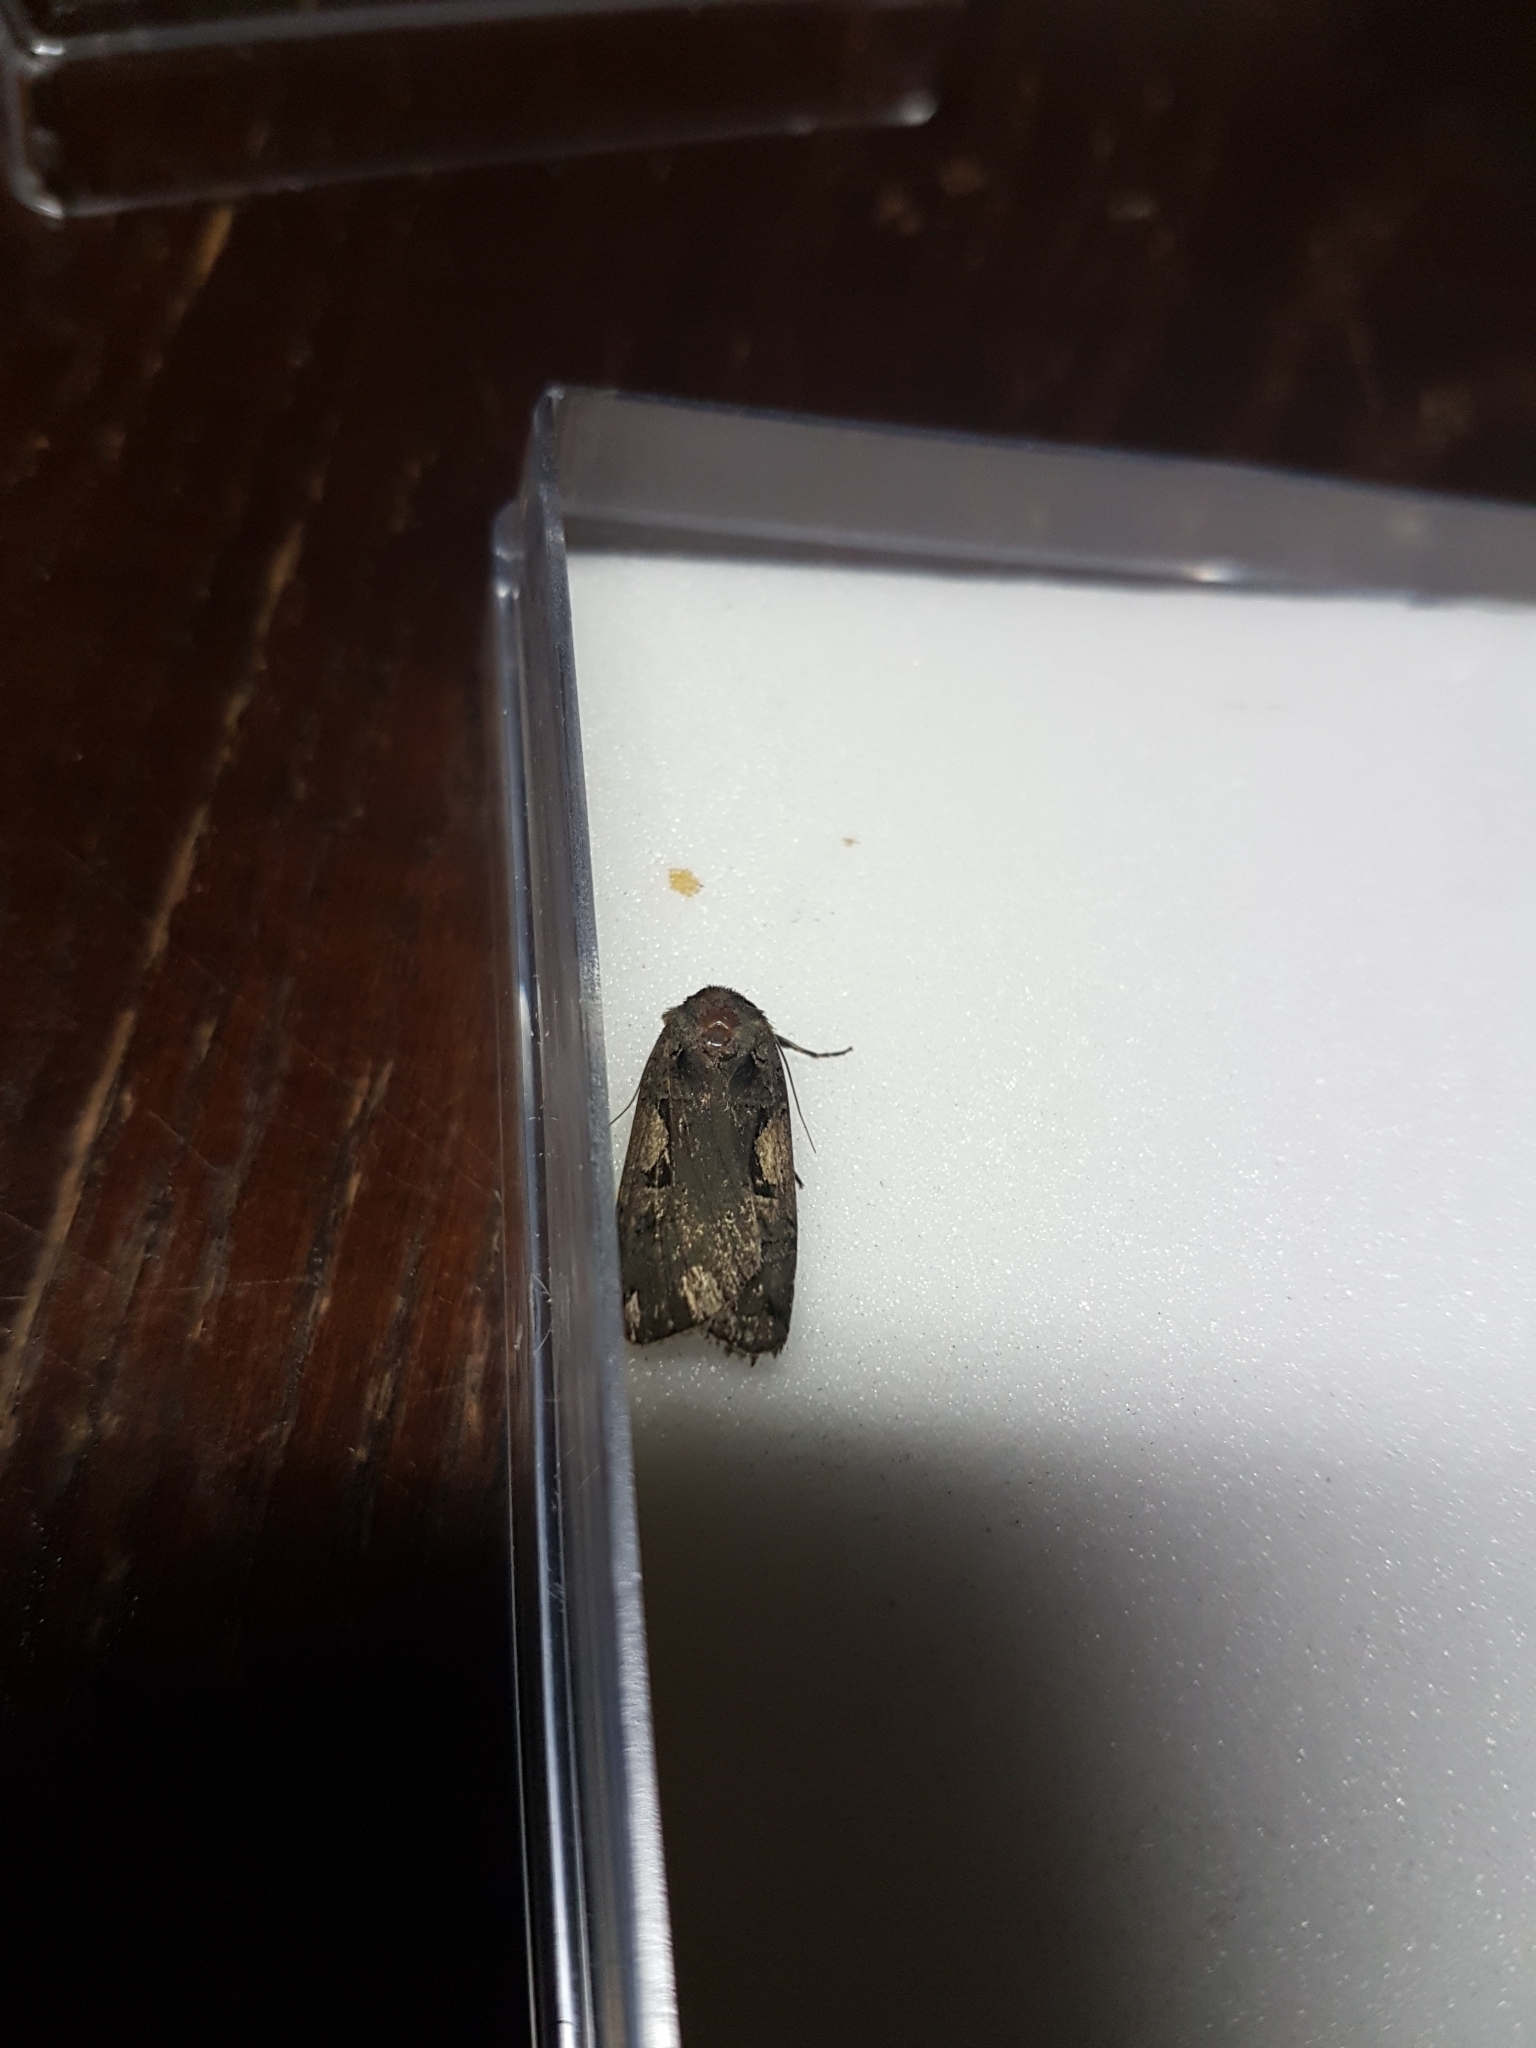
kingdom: Animalia
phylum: Arthropoda
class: Insecta
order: Lepidoptera
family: Noctuidae
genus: Xestia
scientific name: Xestia c-nigrum
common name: Setaceous hebrew character
